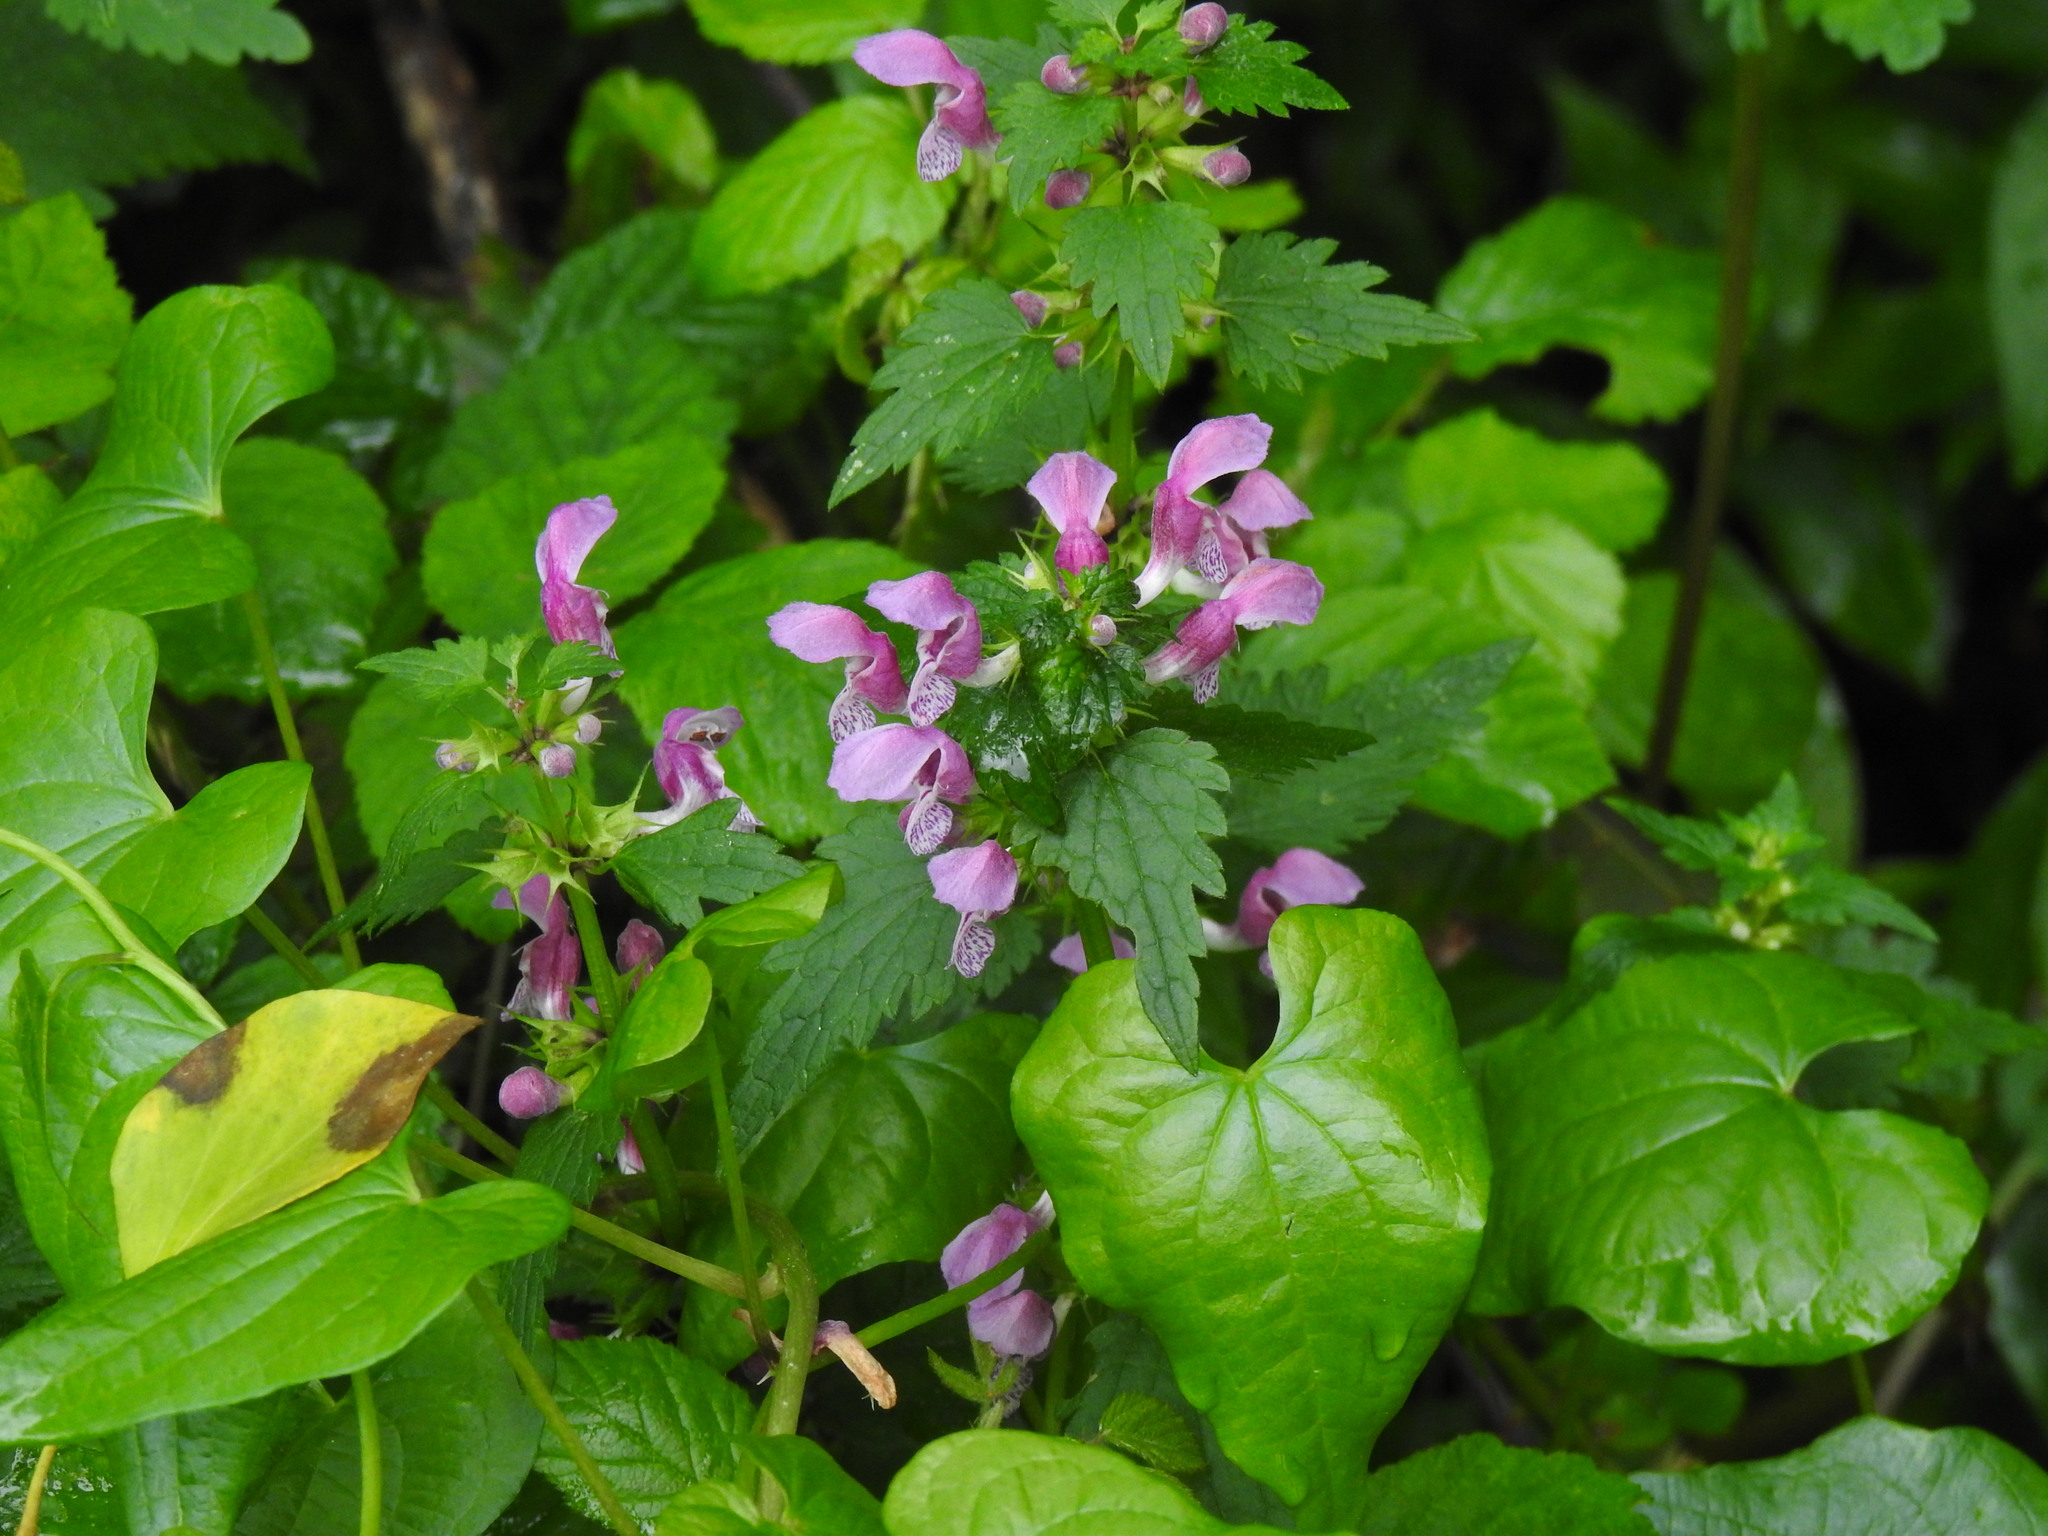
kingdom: Plantae
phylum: Tracheophyta
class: Magnoliopsida
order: Lamiales
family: Lamiaceae
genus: Lamium
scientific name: Lamium maculatum
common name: Spotted dead-nettle
